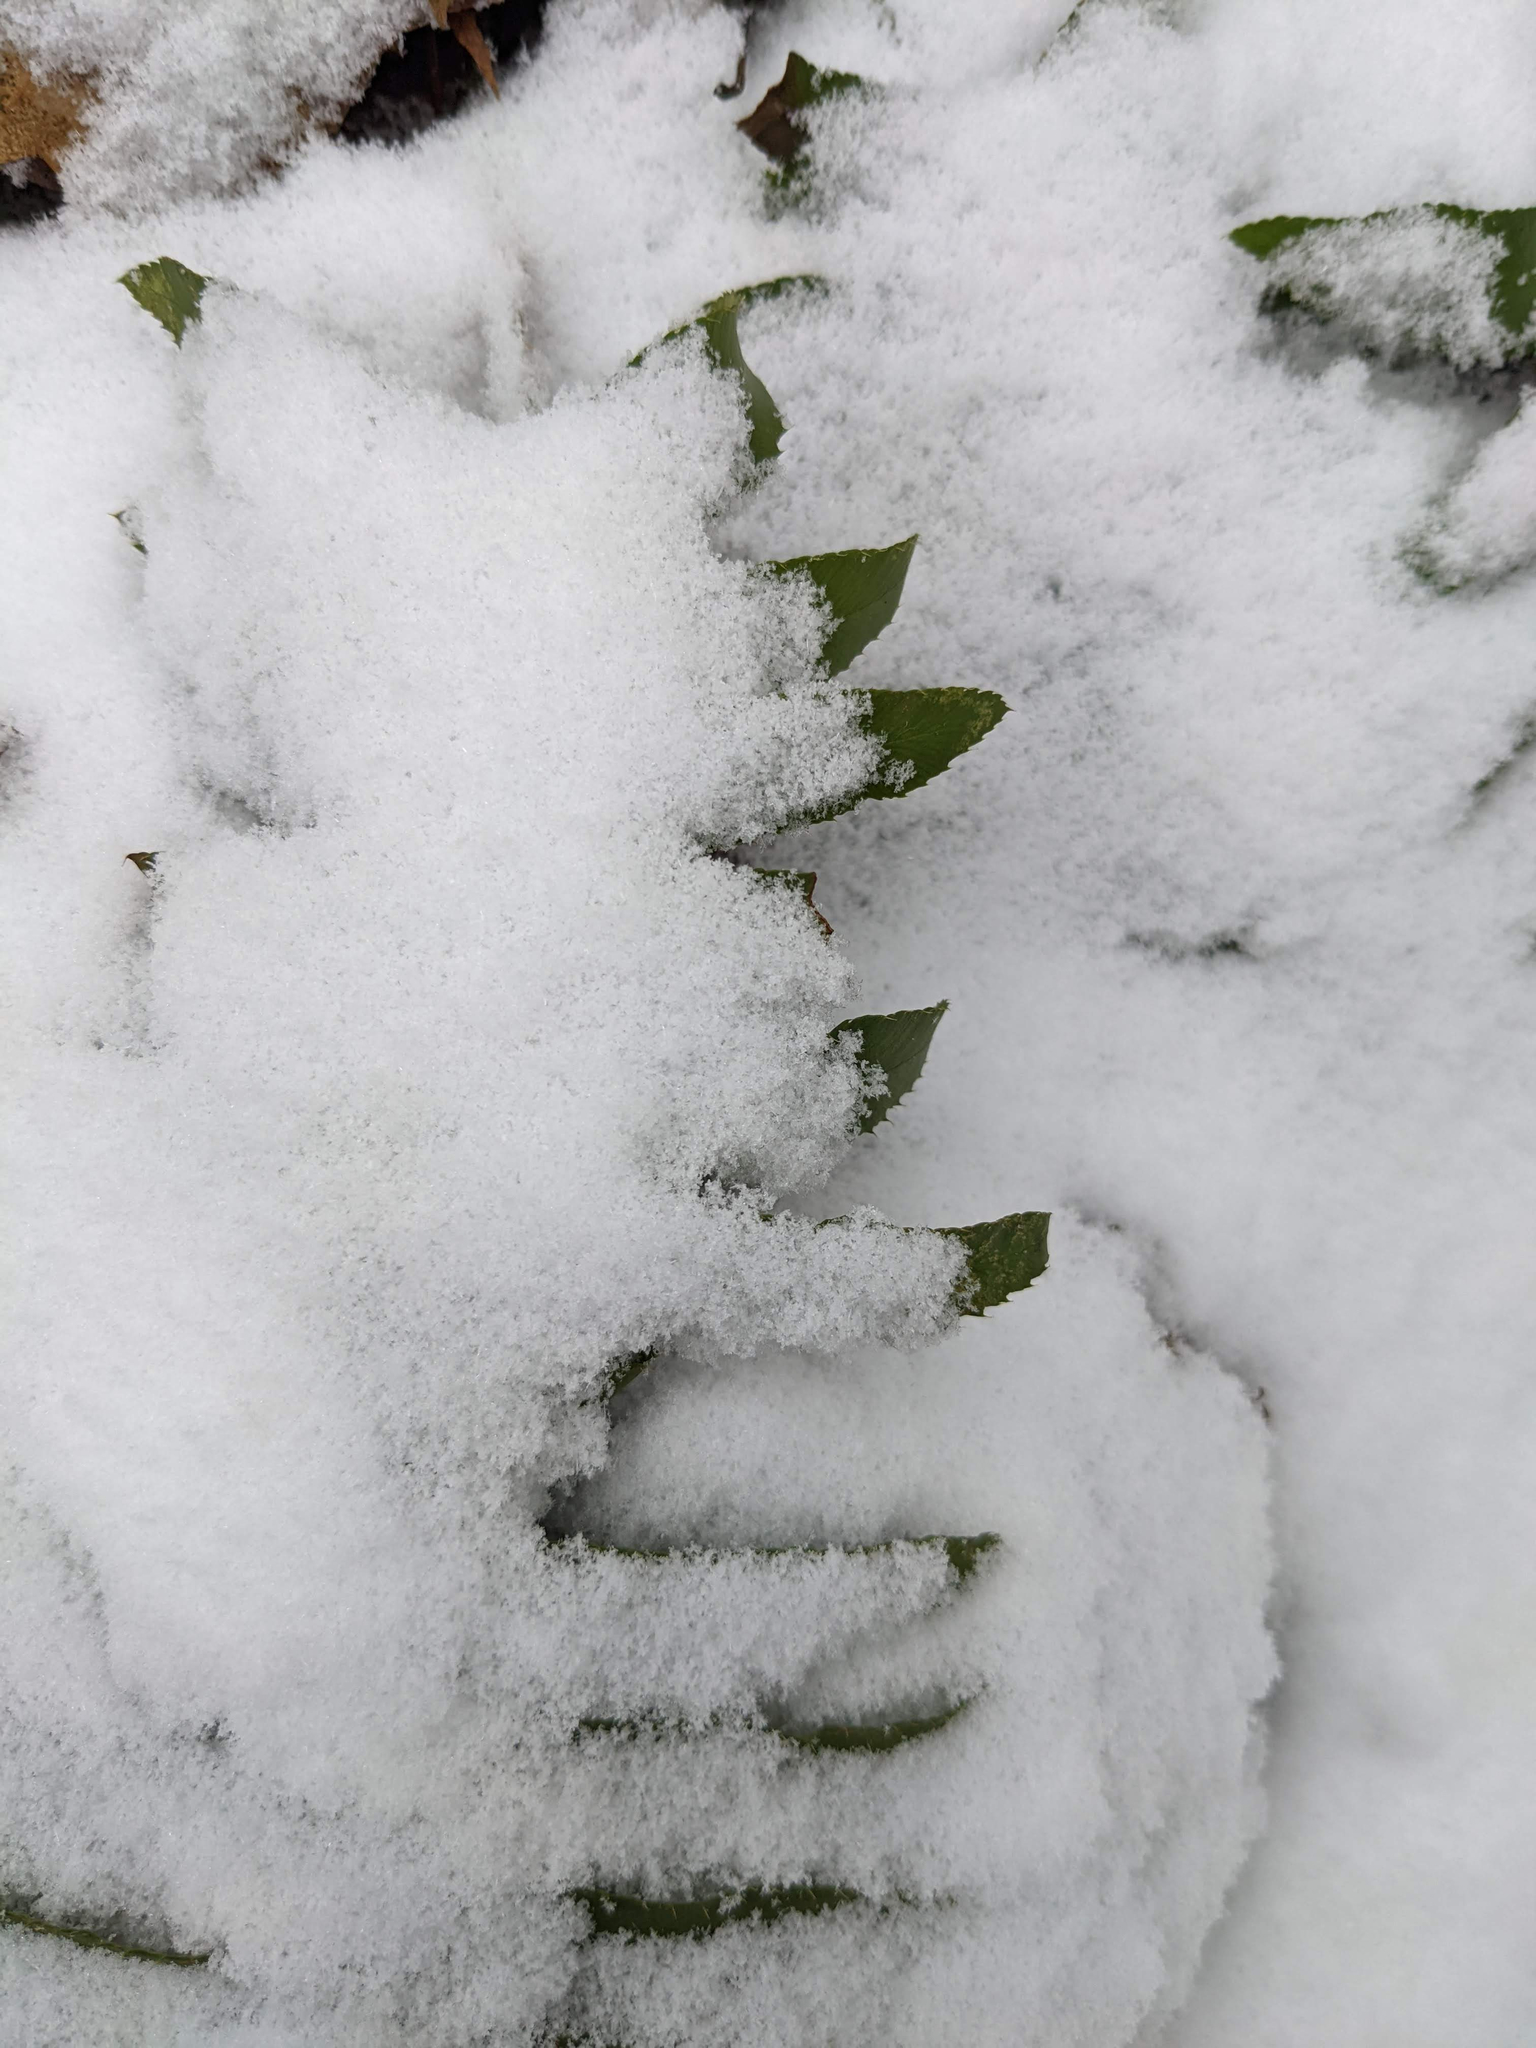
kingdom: Plantae
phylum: Tracheophyta
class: Polypodiopsida
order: Polypodiales
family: Dryopteridaceae
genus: Polystichum
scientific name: Polystichum acrostichoides
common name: Christmas fern
